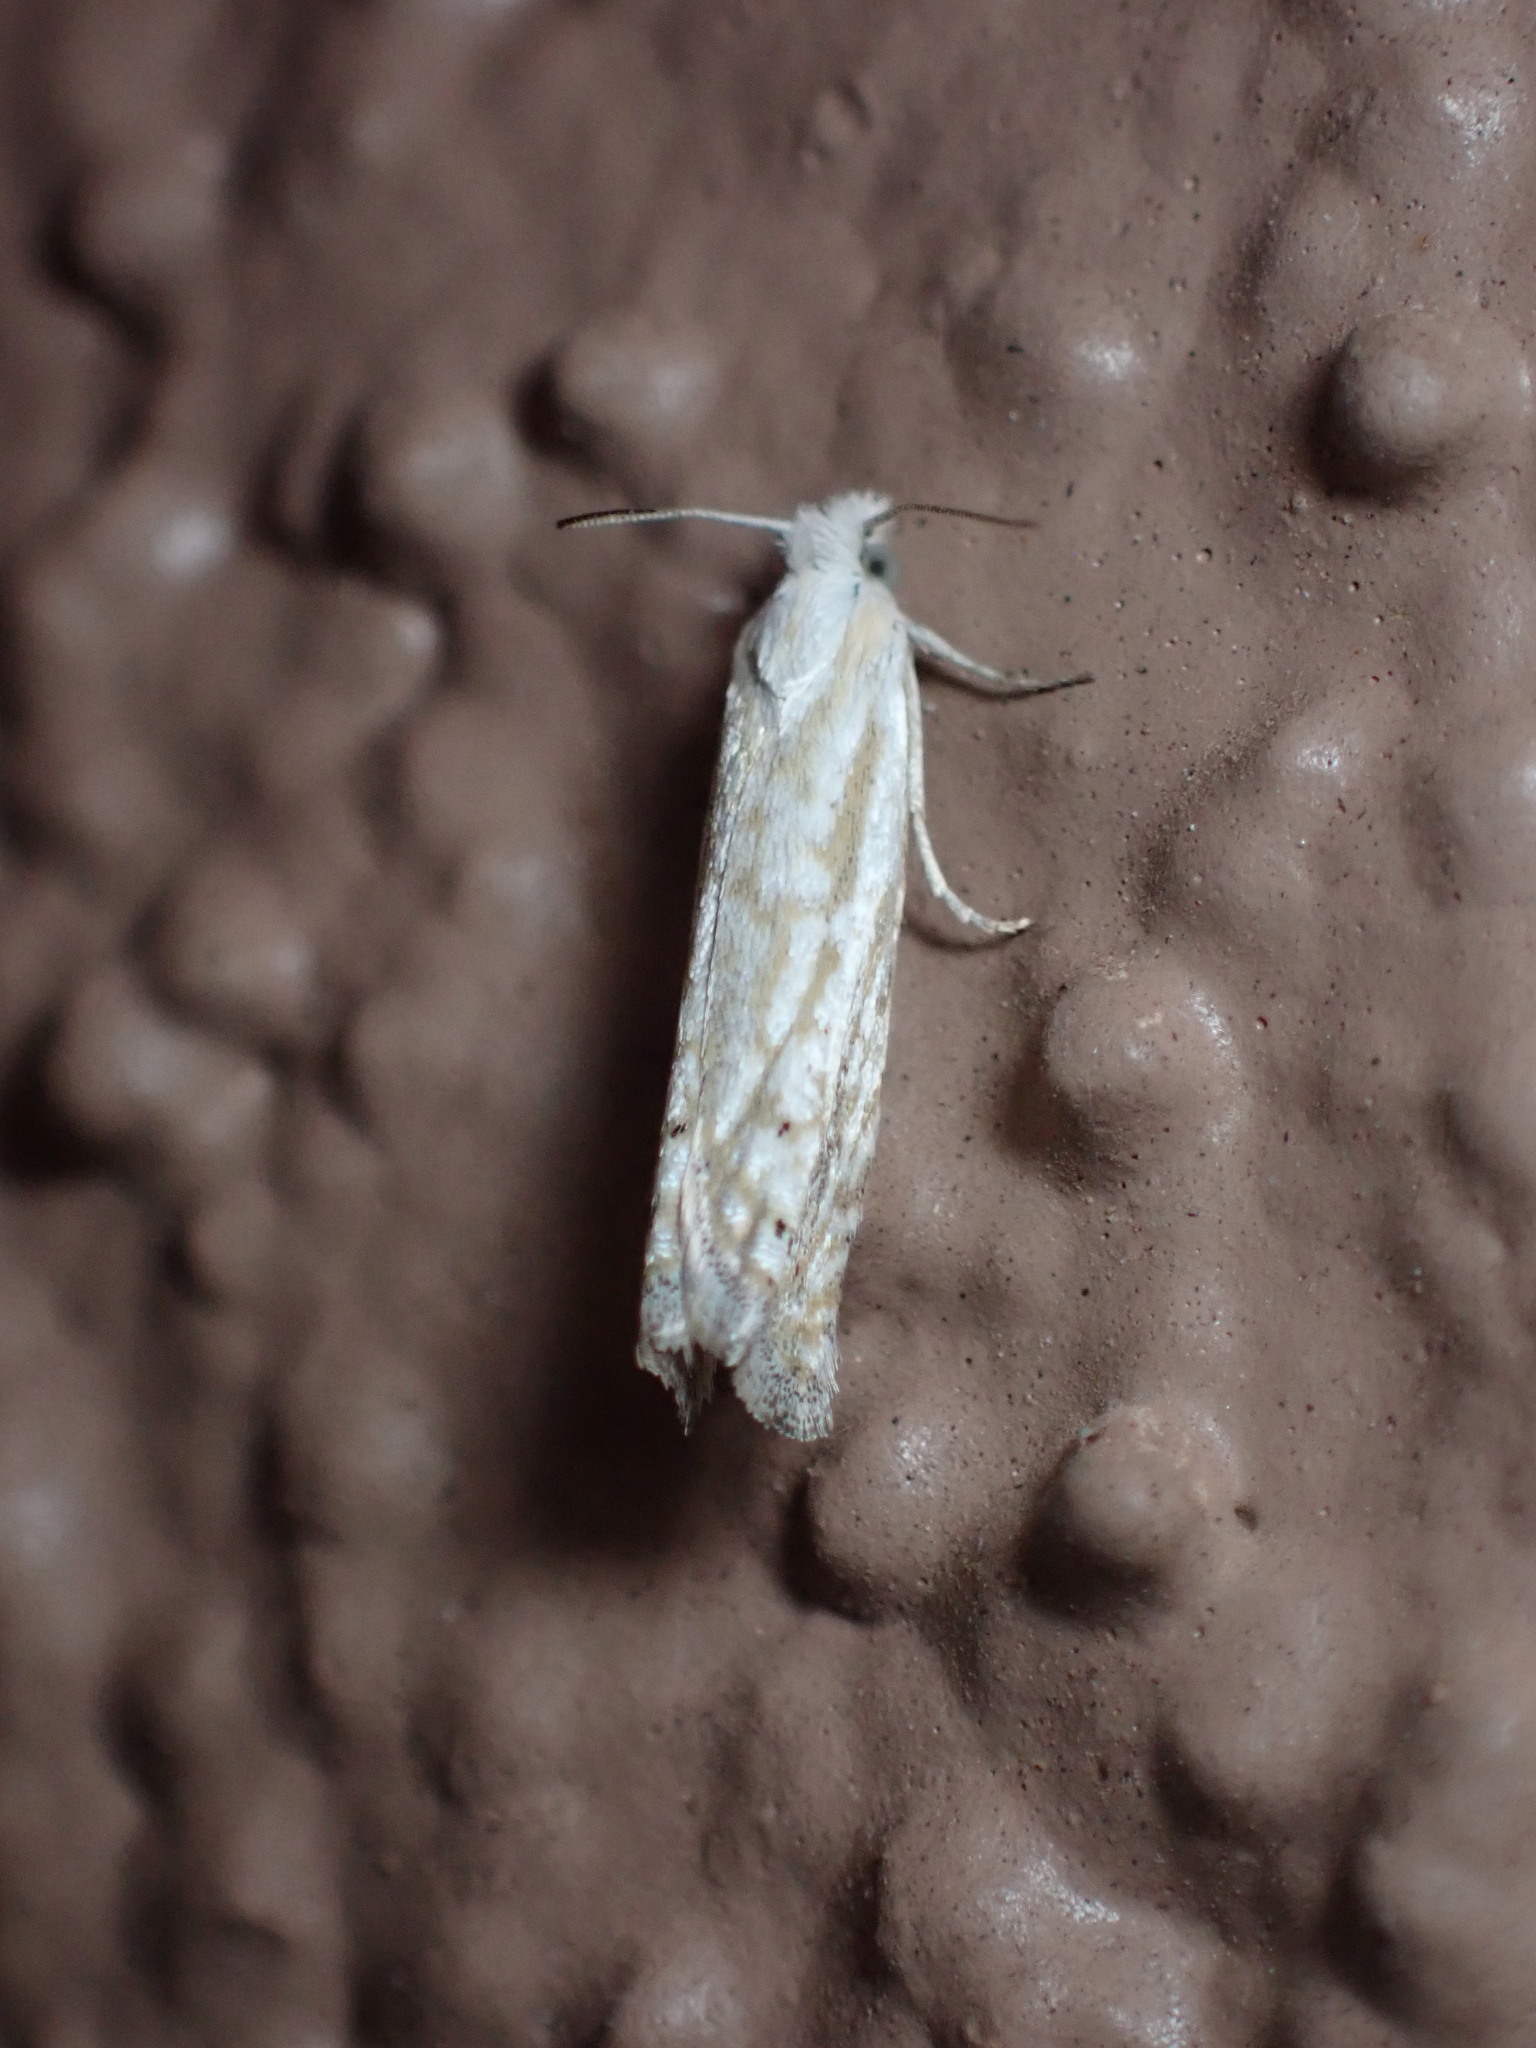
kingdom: Animalia
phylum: Arthropoda
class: Insecta
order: Lepidoptera
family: Tortricidae
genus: Pelochrista
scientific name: Pelochrista serpentana
